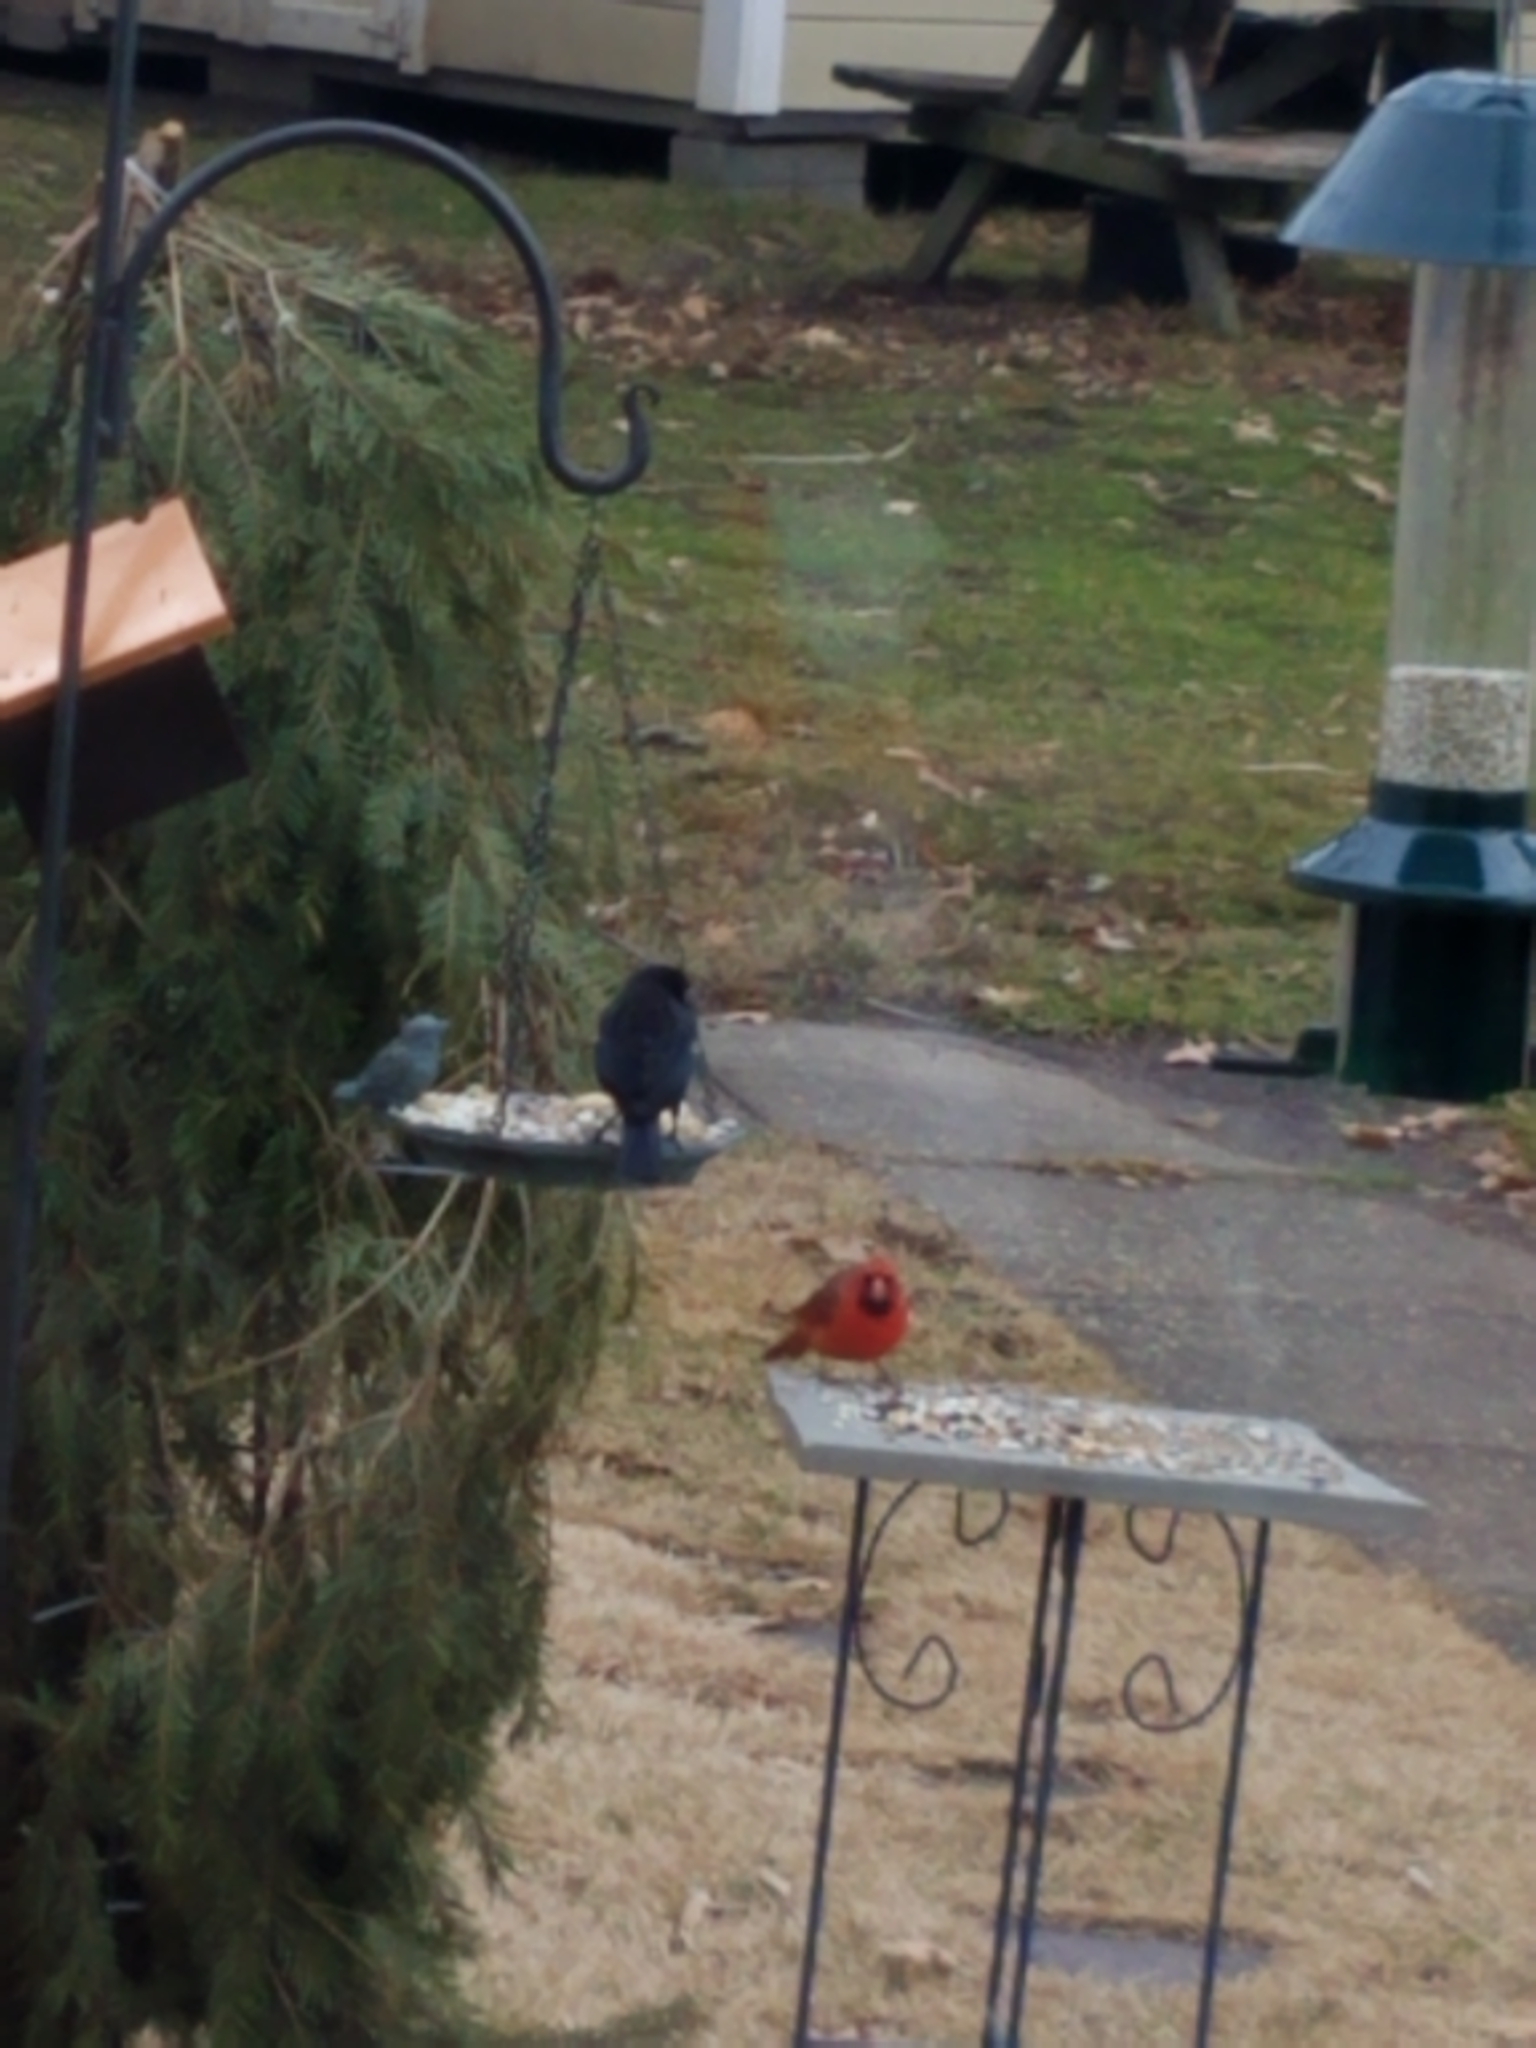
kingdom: Animalia
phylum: Chordata
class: Aves
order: Passeriformes
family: Icteridae
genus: Agelaius
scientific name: Agelaius phoeniceus
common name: Red-winged blackbird
